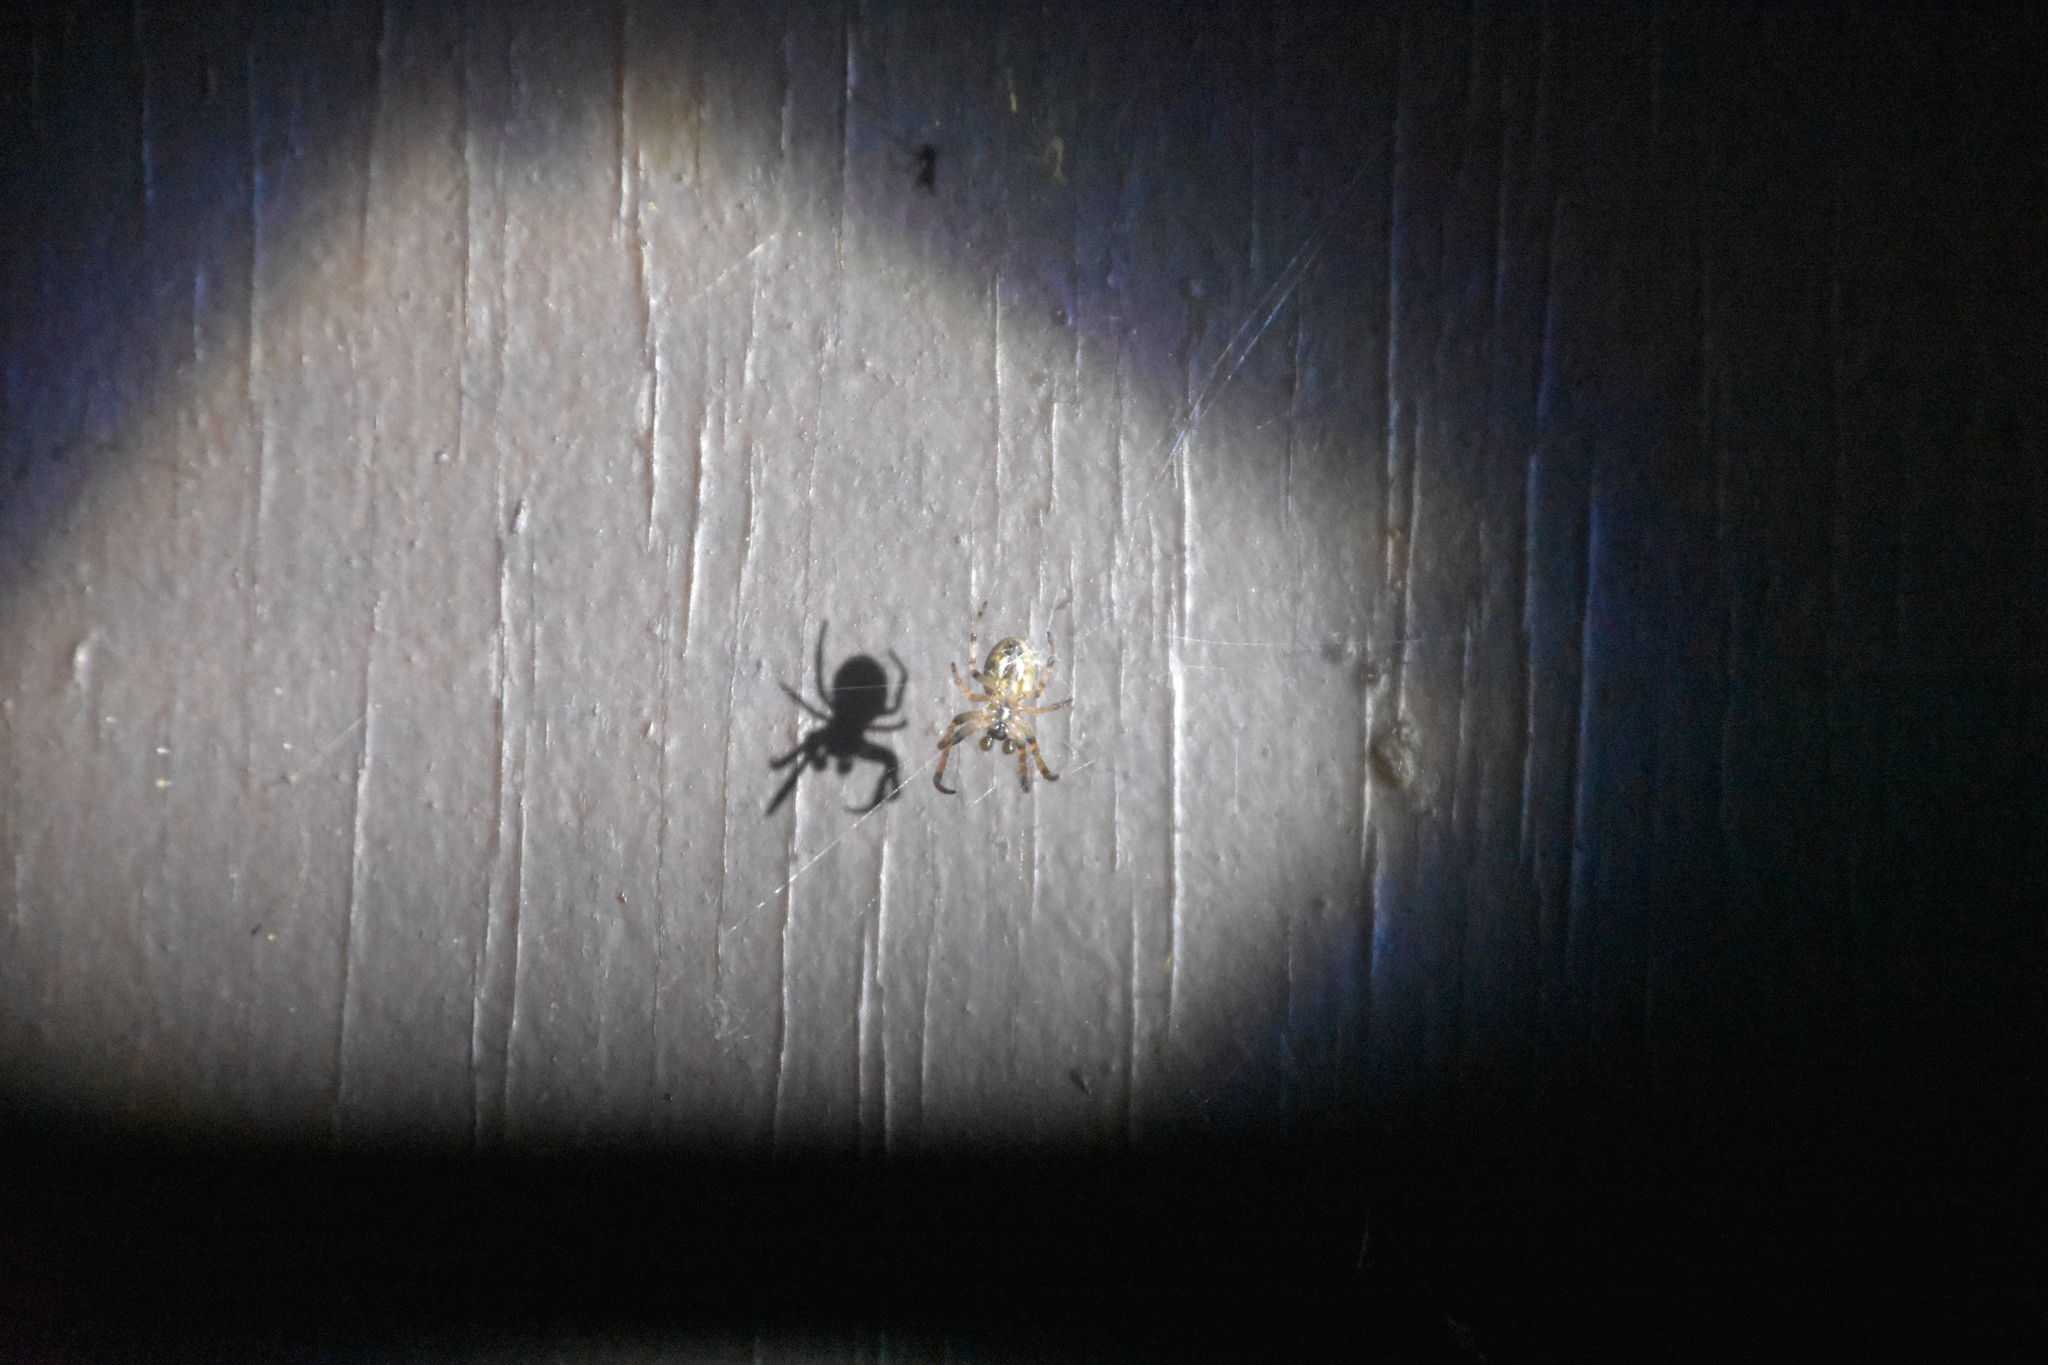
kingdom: Animalia
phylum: Arthropoda
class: Arachnida
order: Araneae
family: Araneidae
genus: Larinioides
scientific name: Larinioides cornutus
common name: Furrow orbweaver
